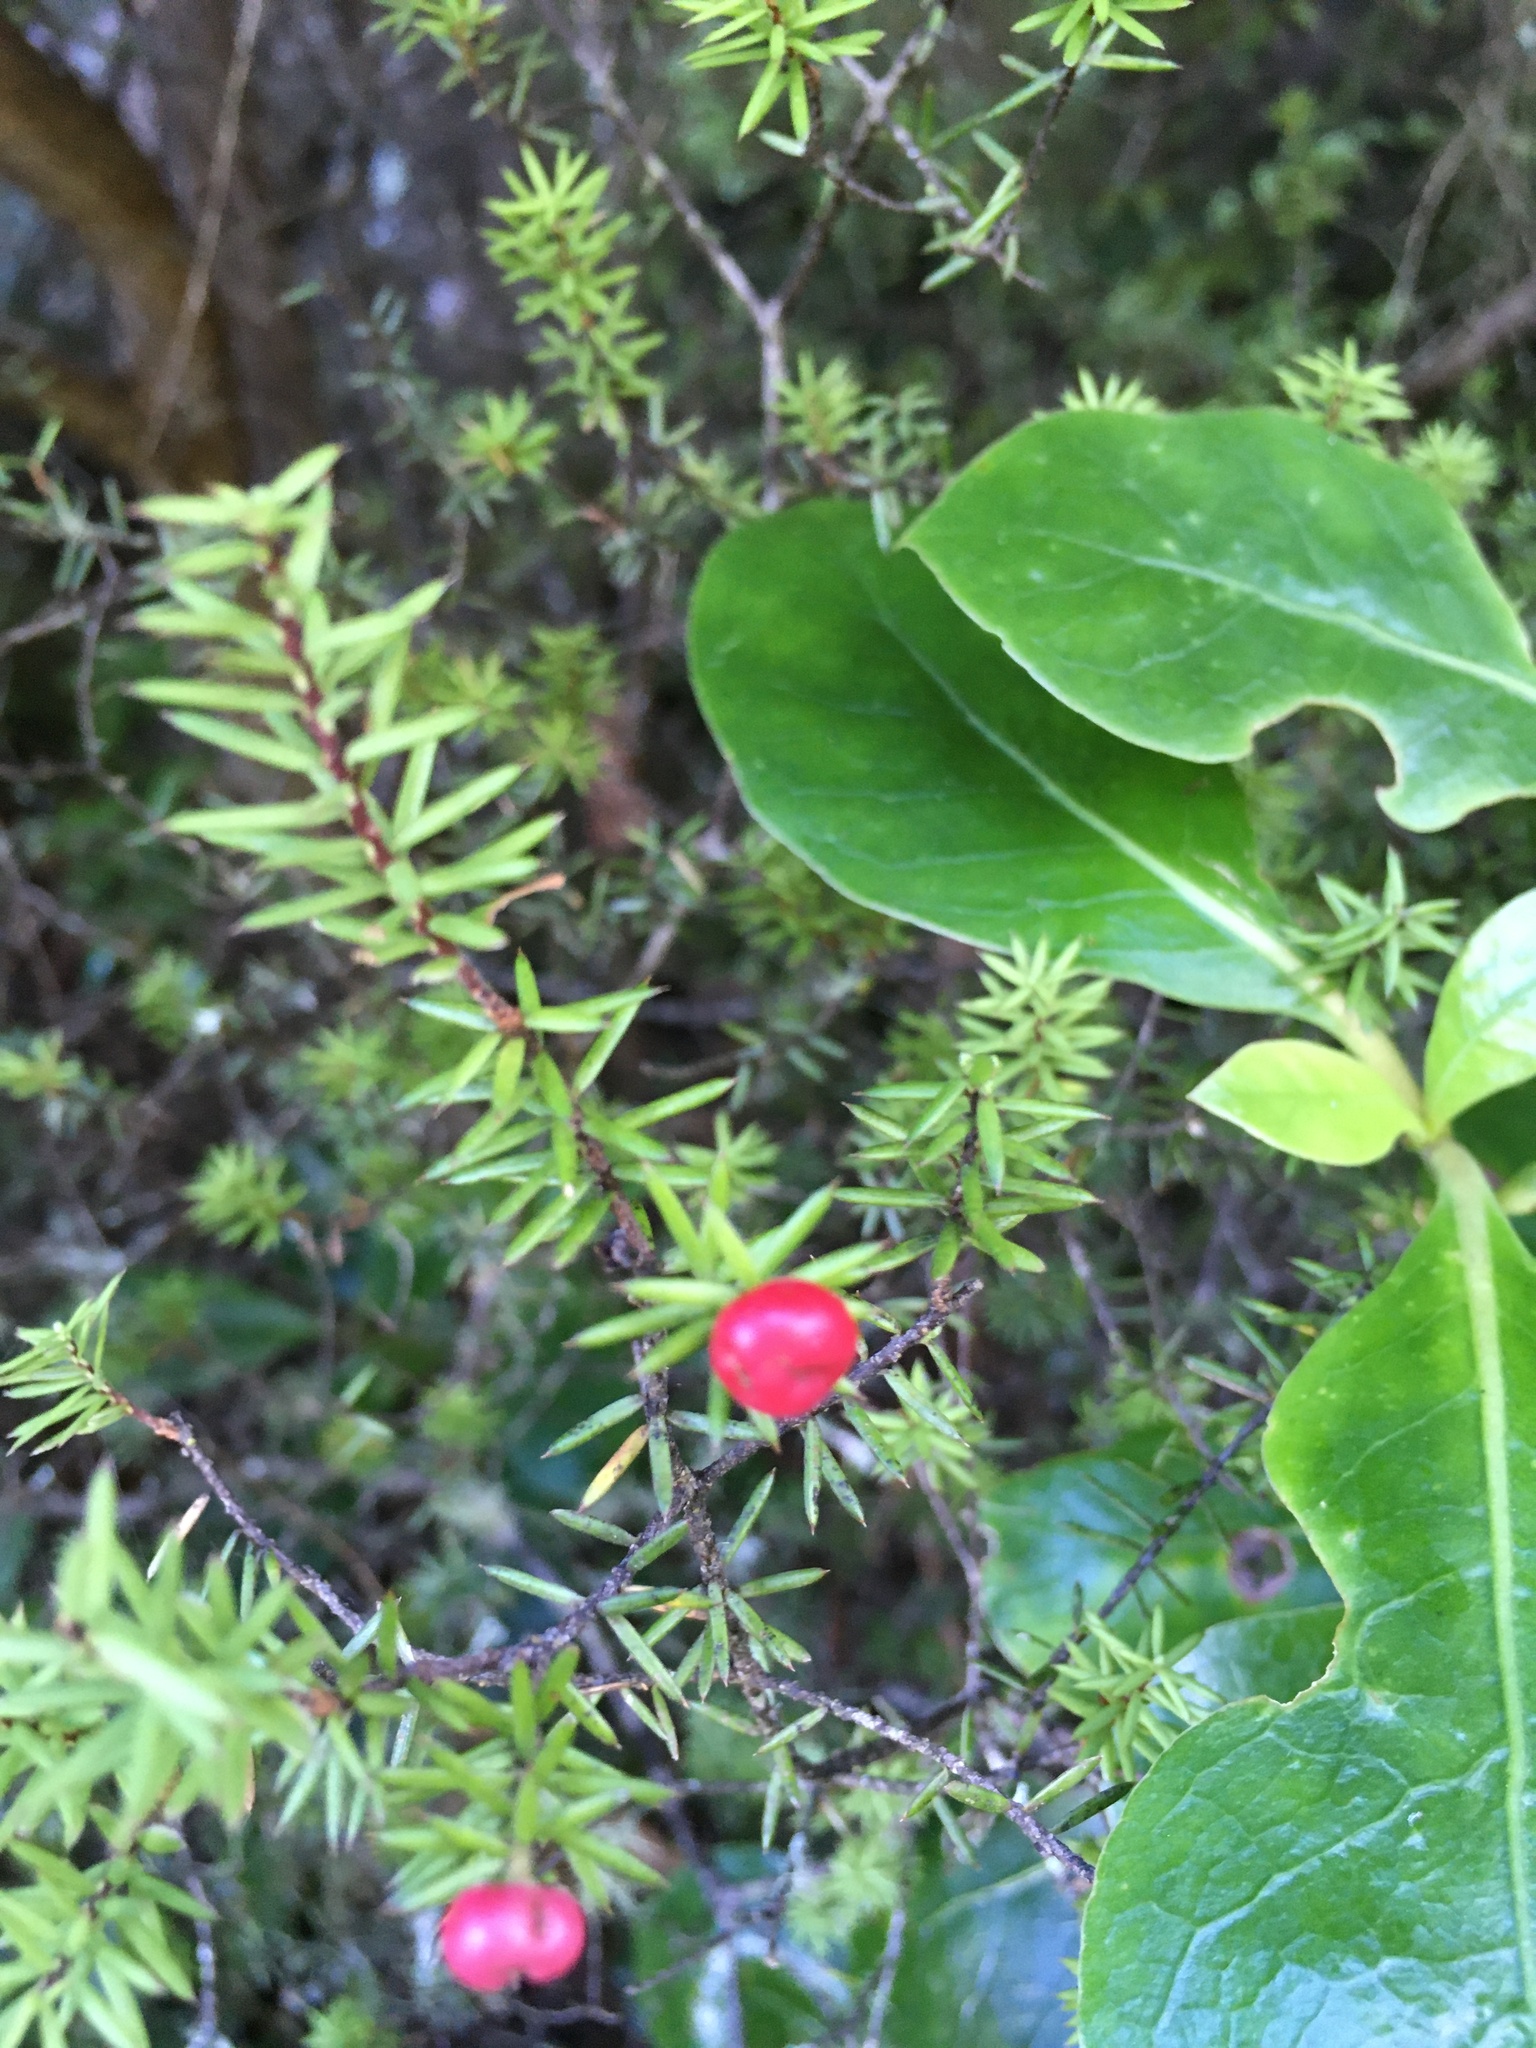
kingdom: Plantae
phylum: Tracheophyta
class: Magnoliopsida
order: Ericales
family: Ericaceae
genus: Leptecophylla
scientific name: Leptecophylla juniperina
